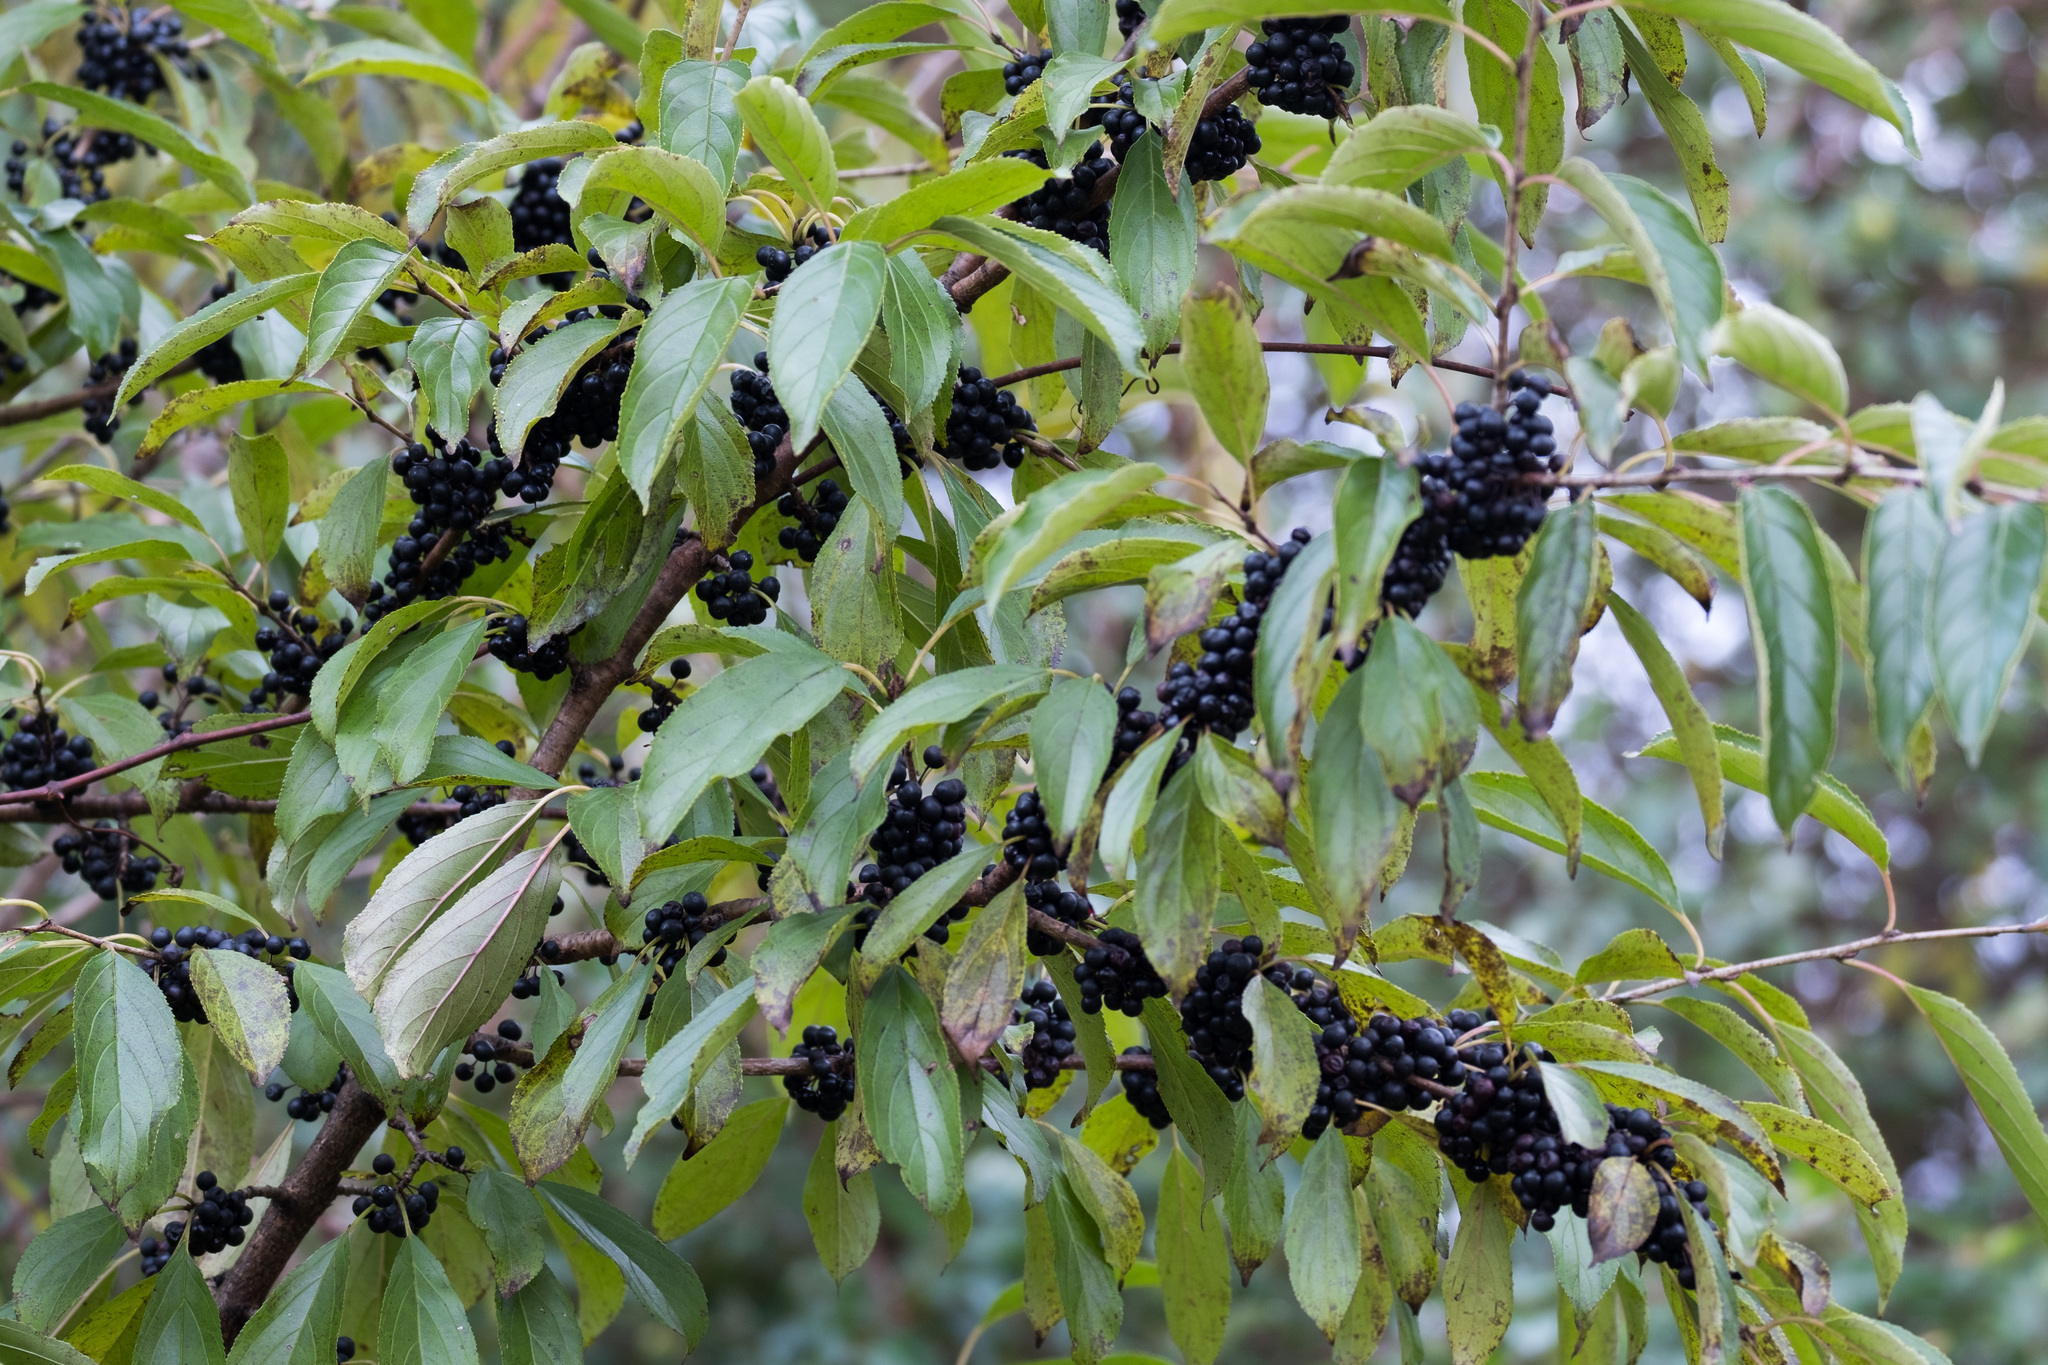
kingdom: Plantae
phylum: Tracheophyta
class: Magnoliopsida
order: Rosales
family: Rhamnaceae
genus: Rhamnus
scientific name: Rhamnus cathartica
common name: Common buckthorn
